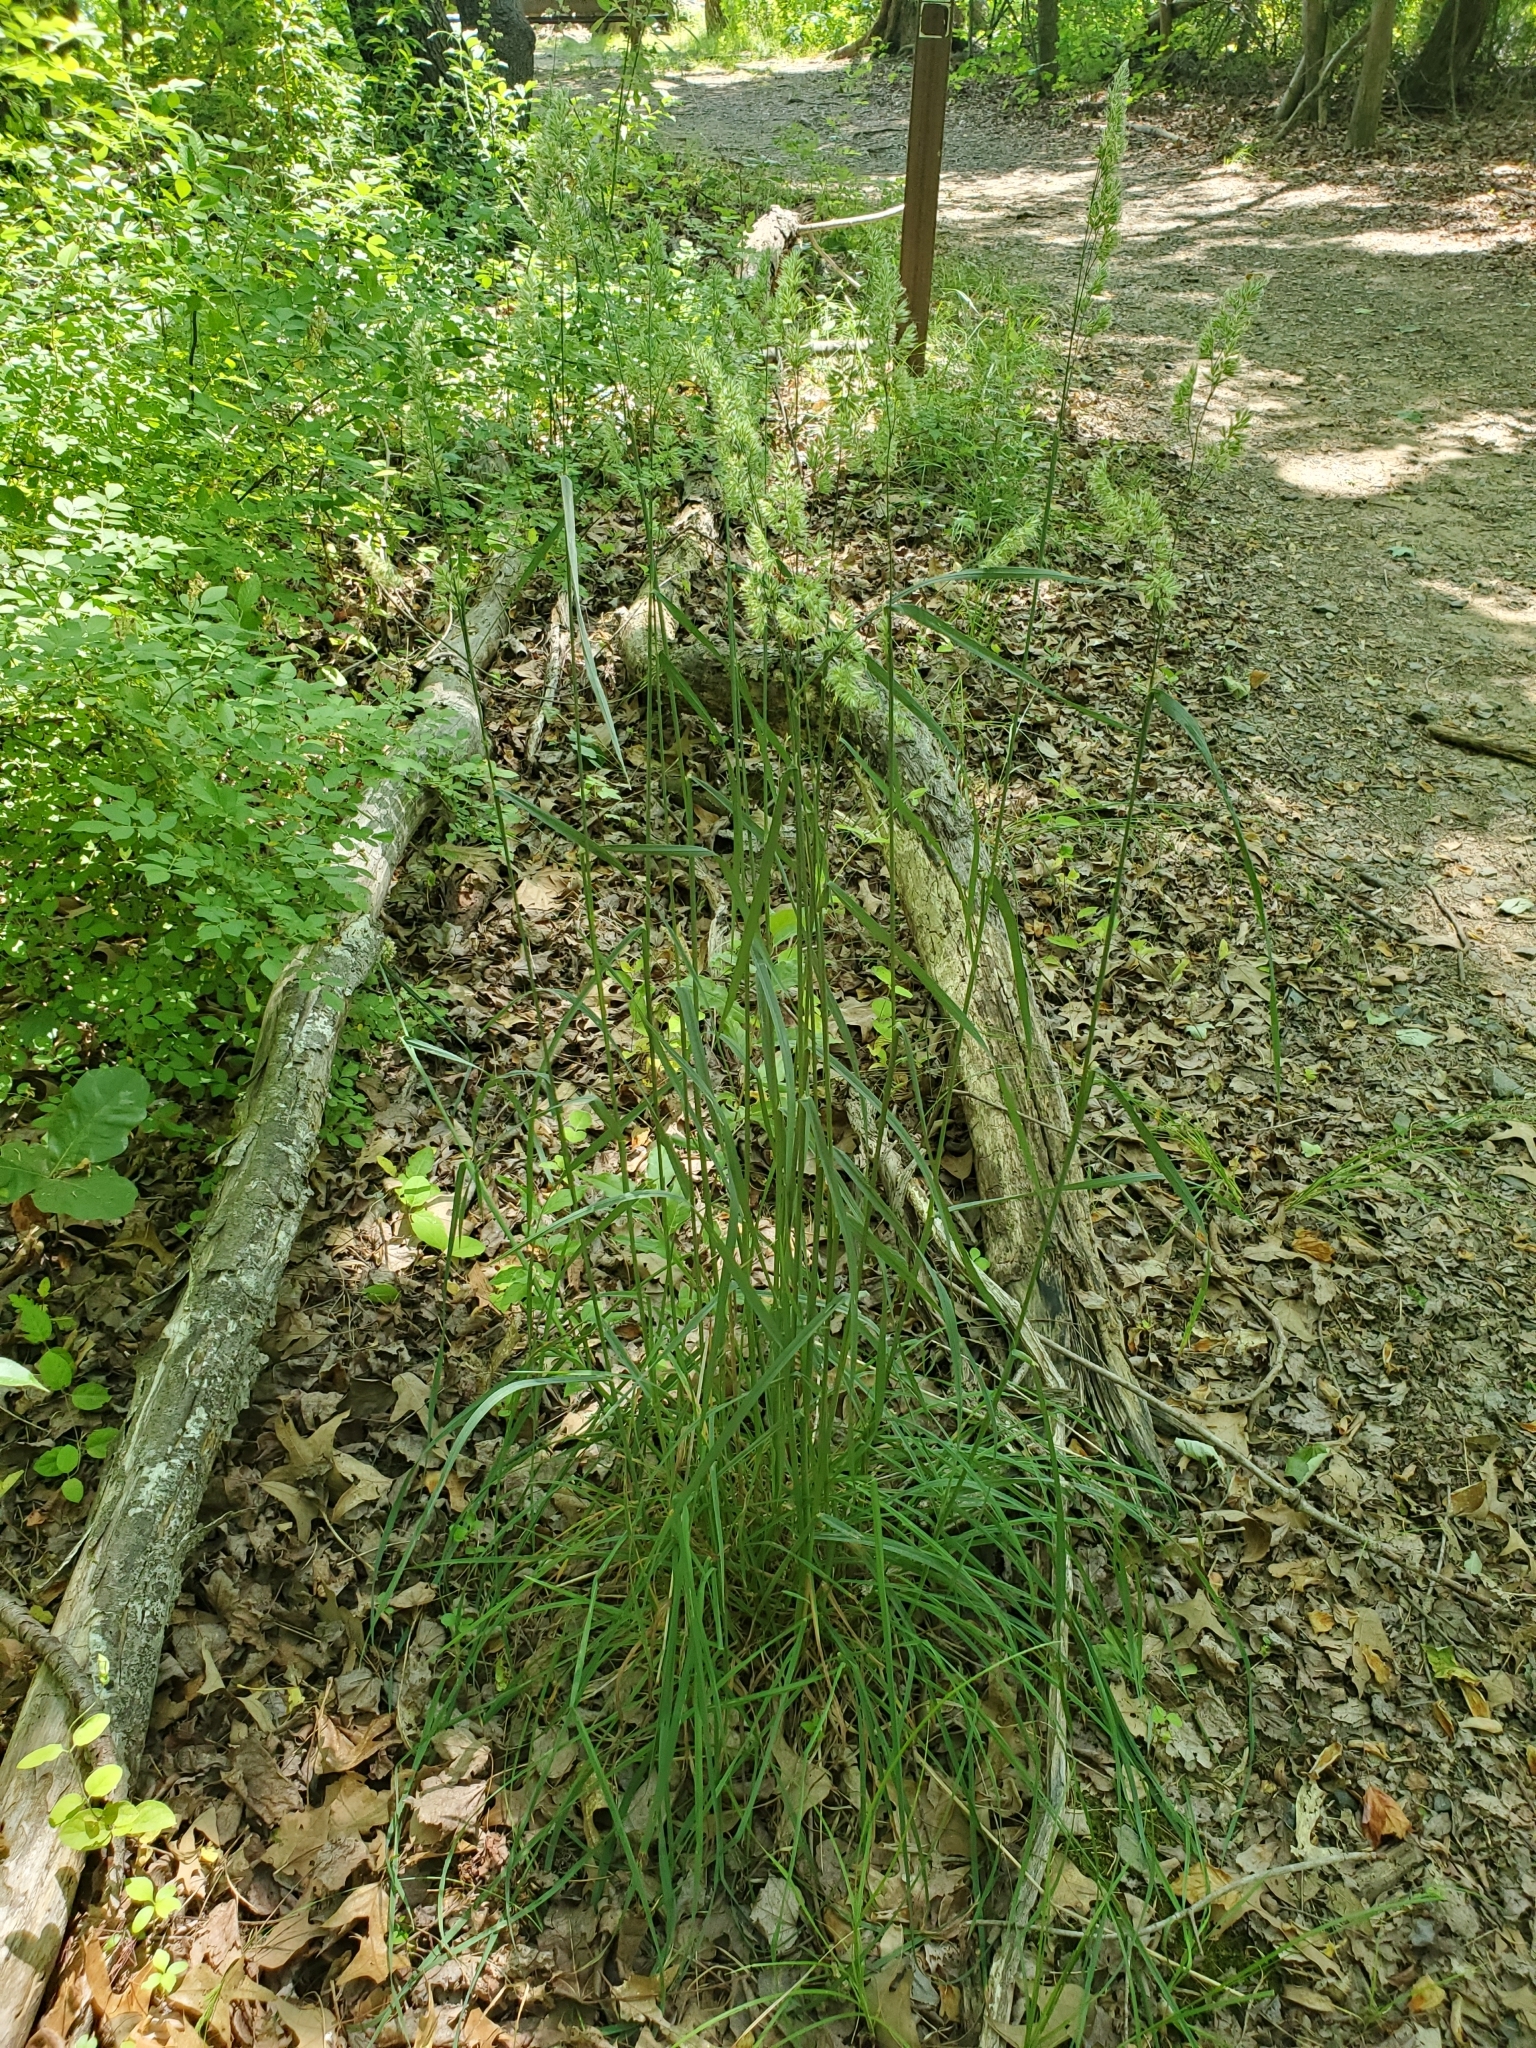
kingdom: Plantae
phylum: Tracheophyta
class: Liliopsida
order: Poales
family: Poaceae
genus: Dactylis
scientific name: Dactylis glomerata
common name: Orchardgrass
